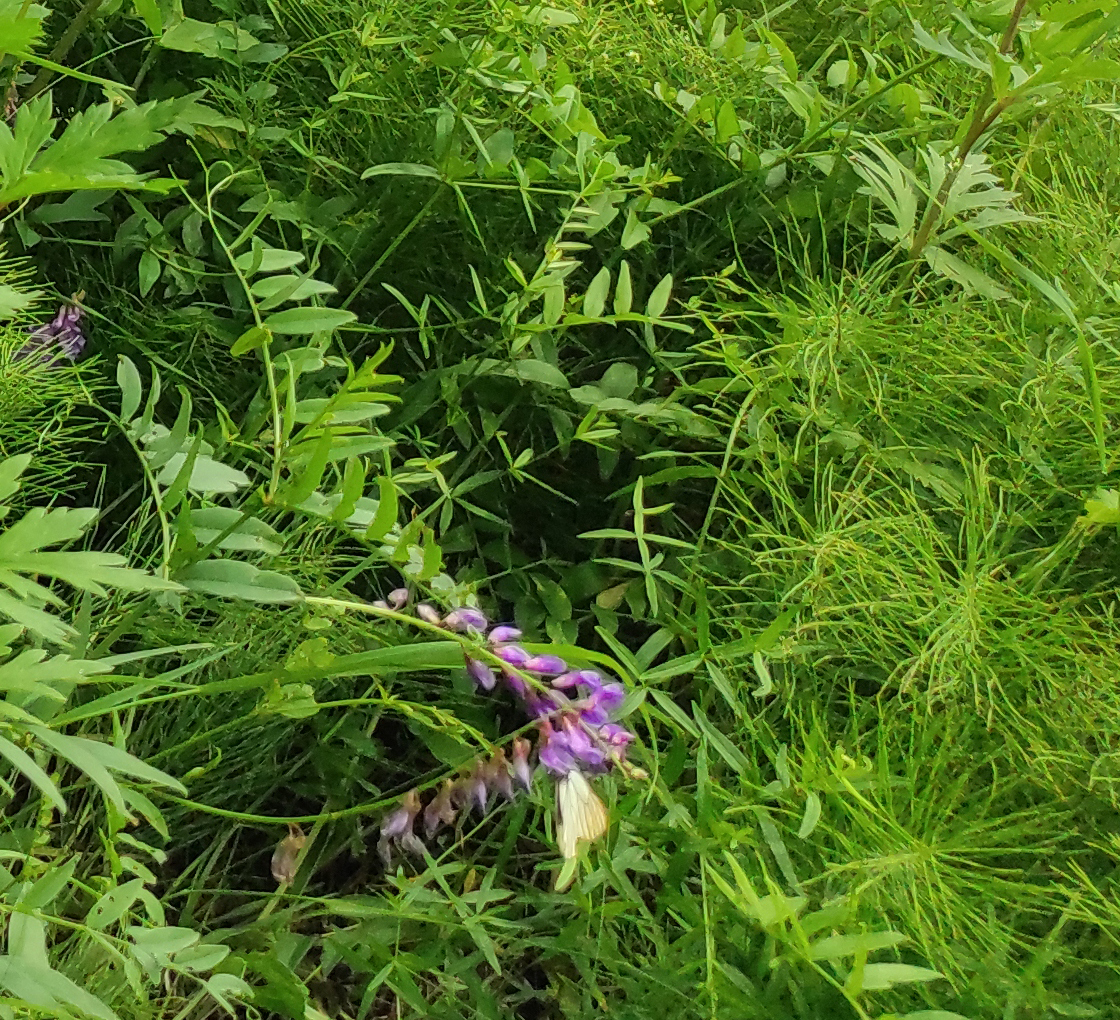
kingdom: Plantae
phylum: Tracheophyta
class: Magnoliopsida
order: Fabales
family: Fabaceae
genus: Vicia
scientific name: Vicia amoena
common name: Cheder ebs
